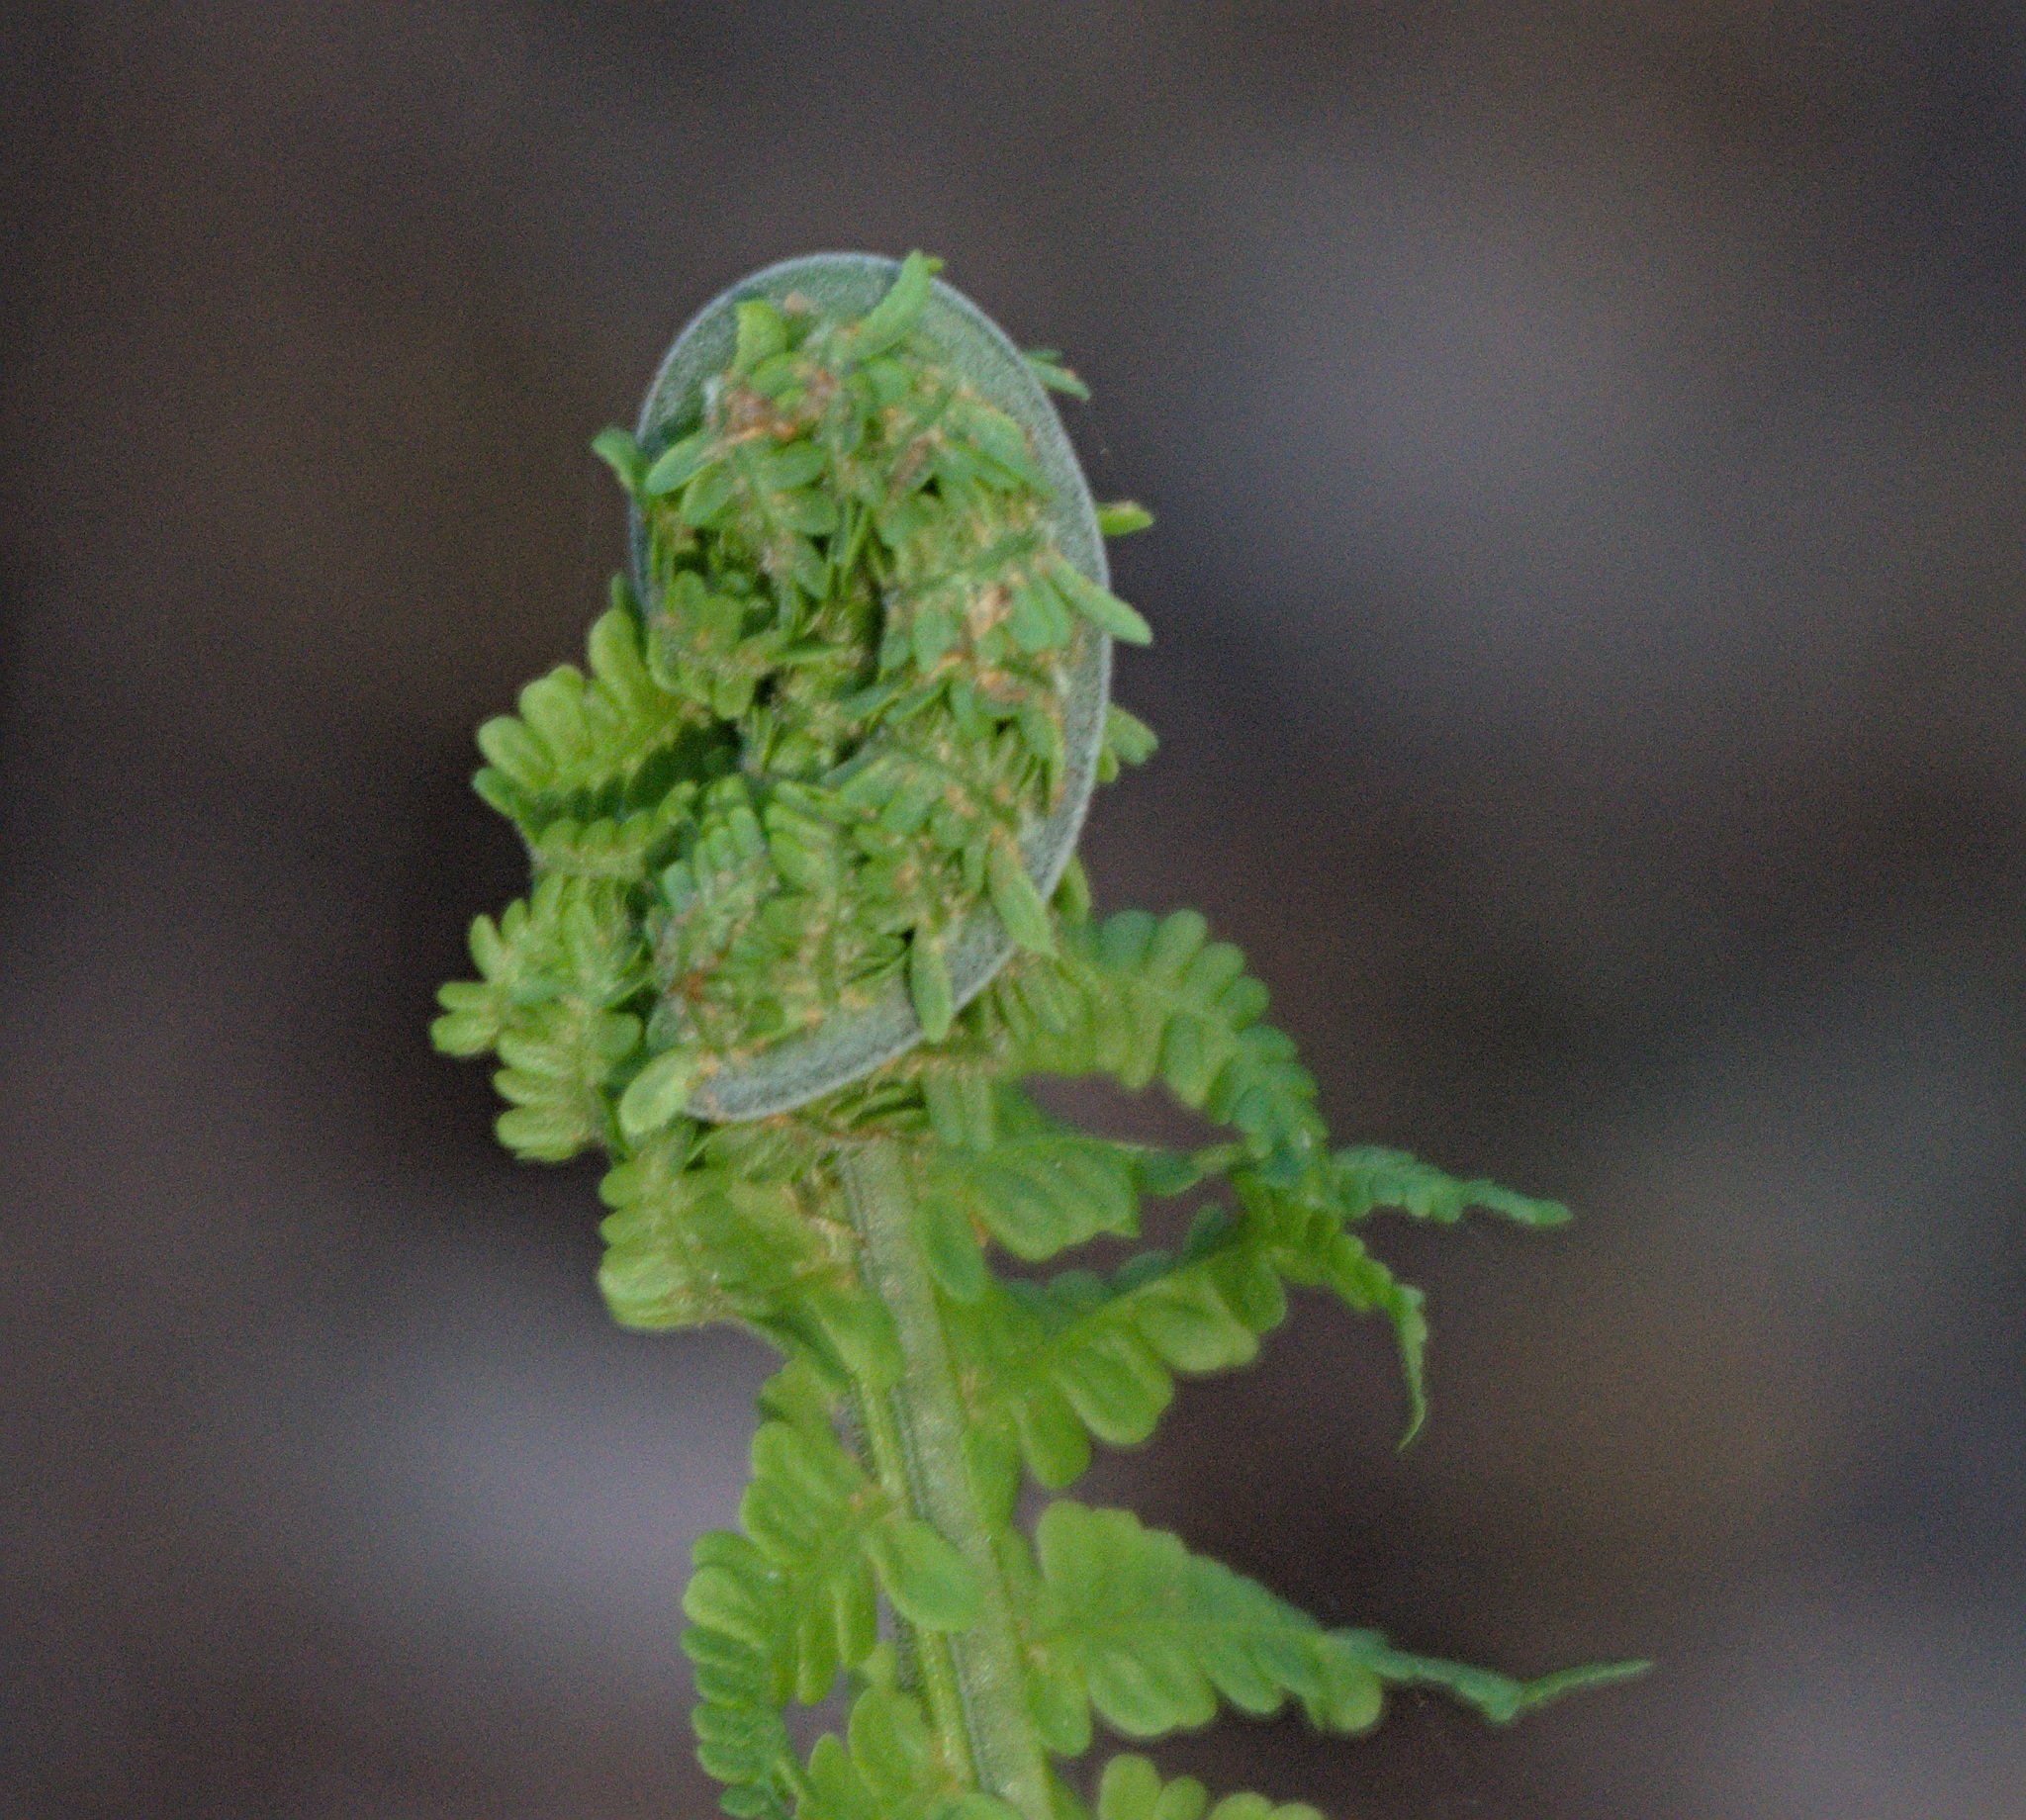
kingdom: Plantae
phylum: Tracheophyta
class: Polypodiopsida
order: Polypodiales
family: Onocleaceae
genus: Matteuccia
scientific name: Matteuccia struthiopteris
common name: Ostrich fern
